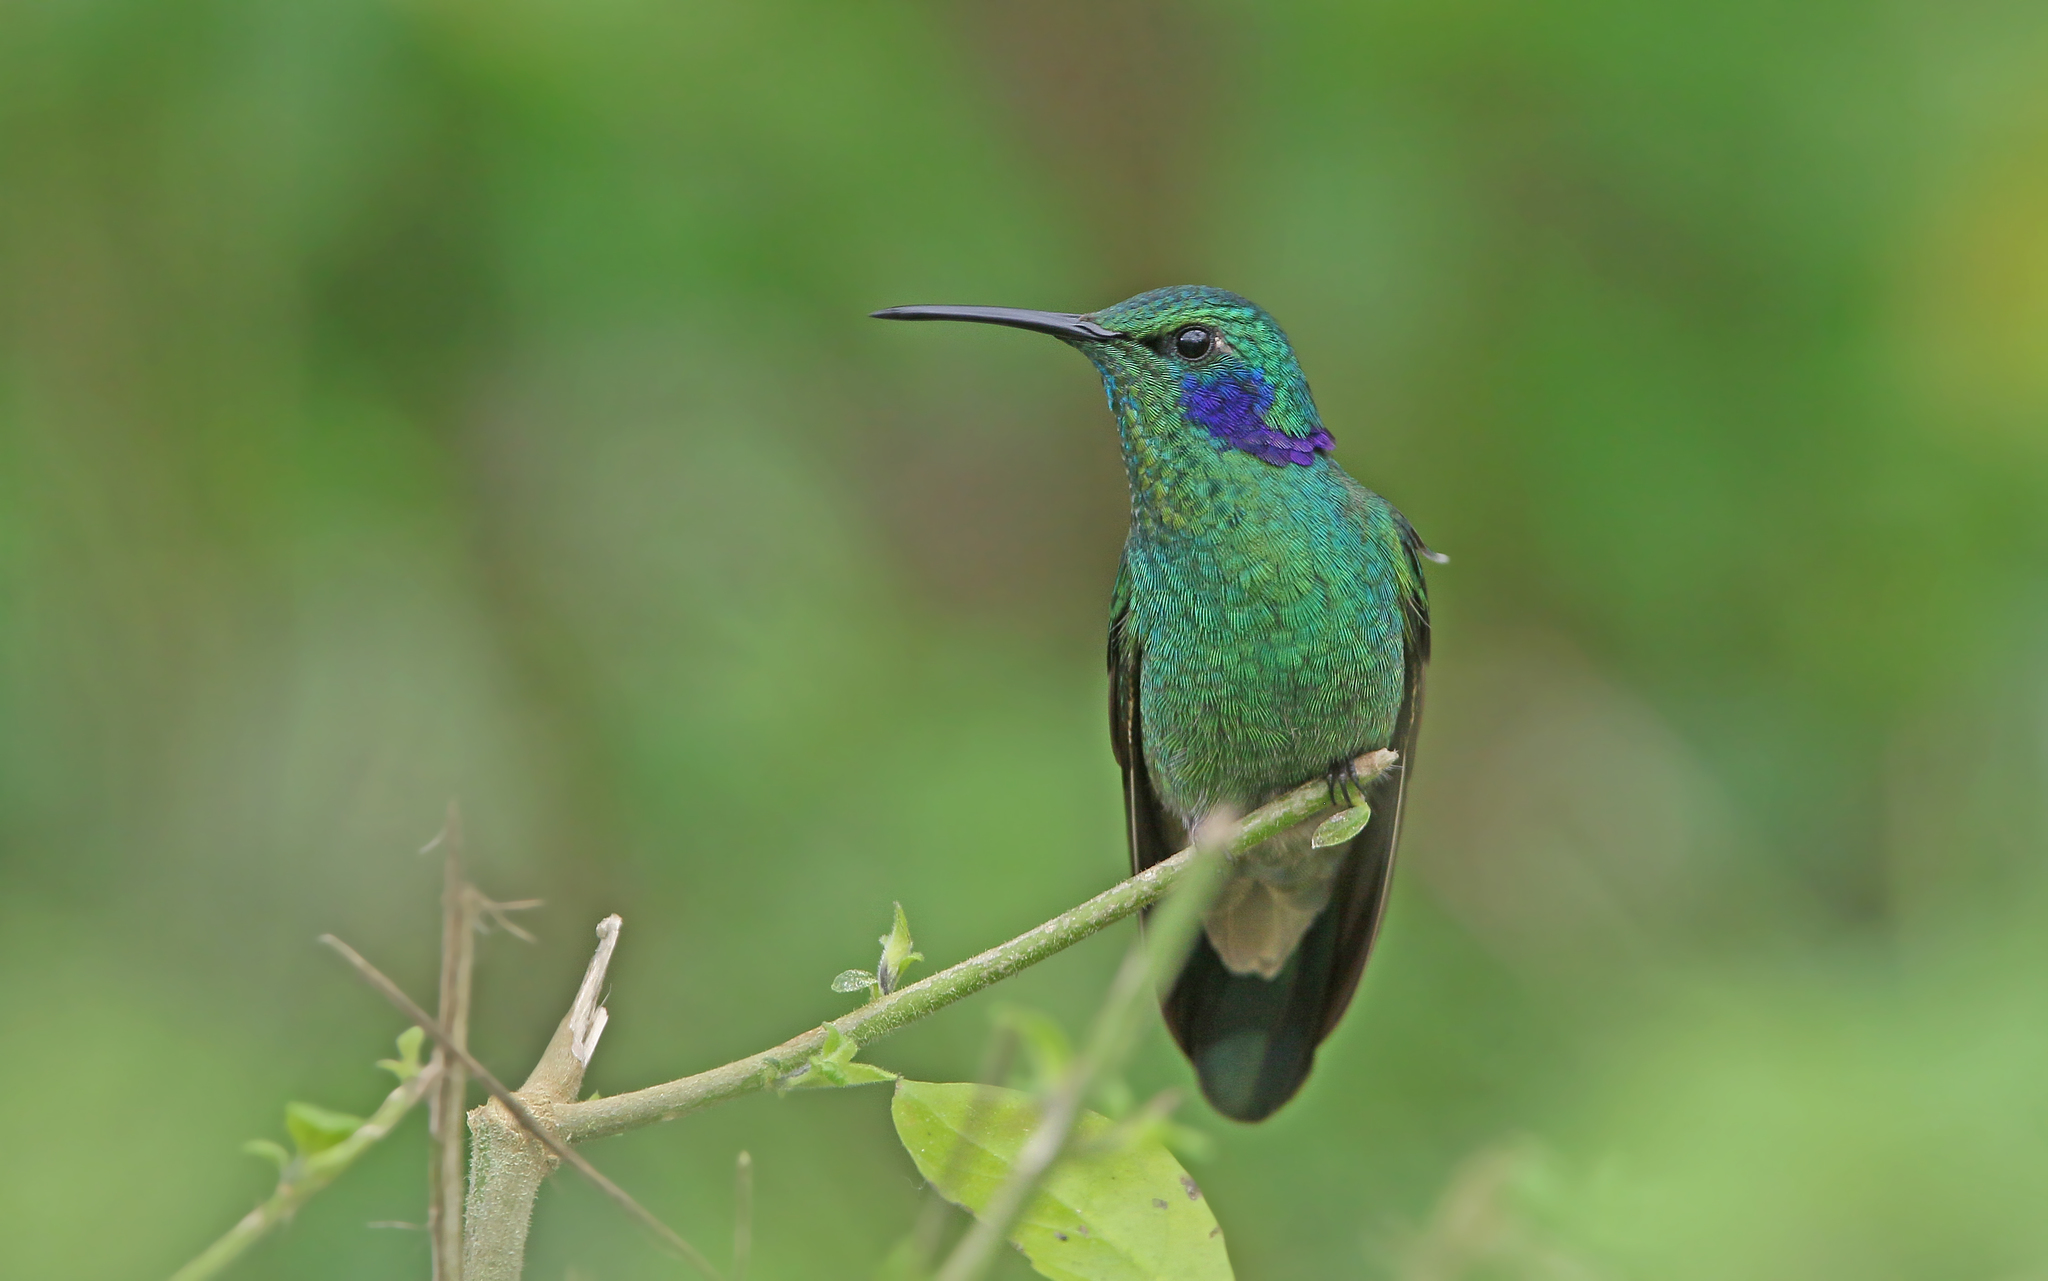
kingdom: Animalia
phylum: Chordata
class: Aves
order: Apodiformes
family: Trochilidae
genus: Colibri
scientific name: Colibri cyanotus
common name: Lesser violetear
